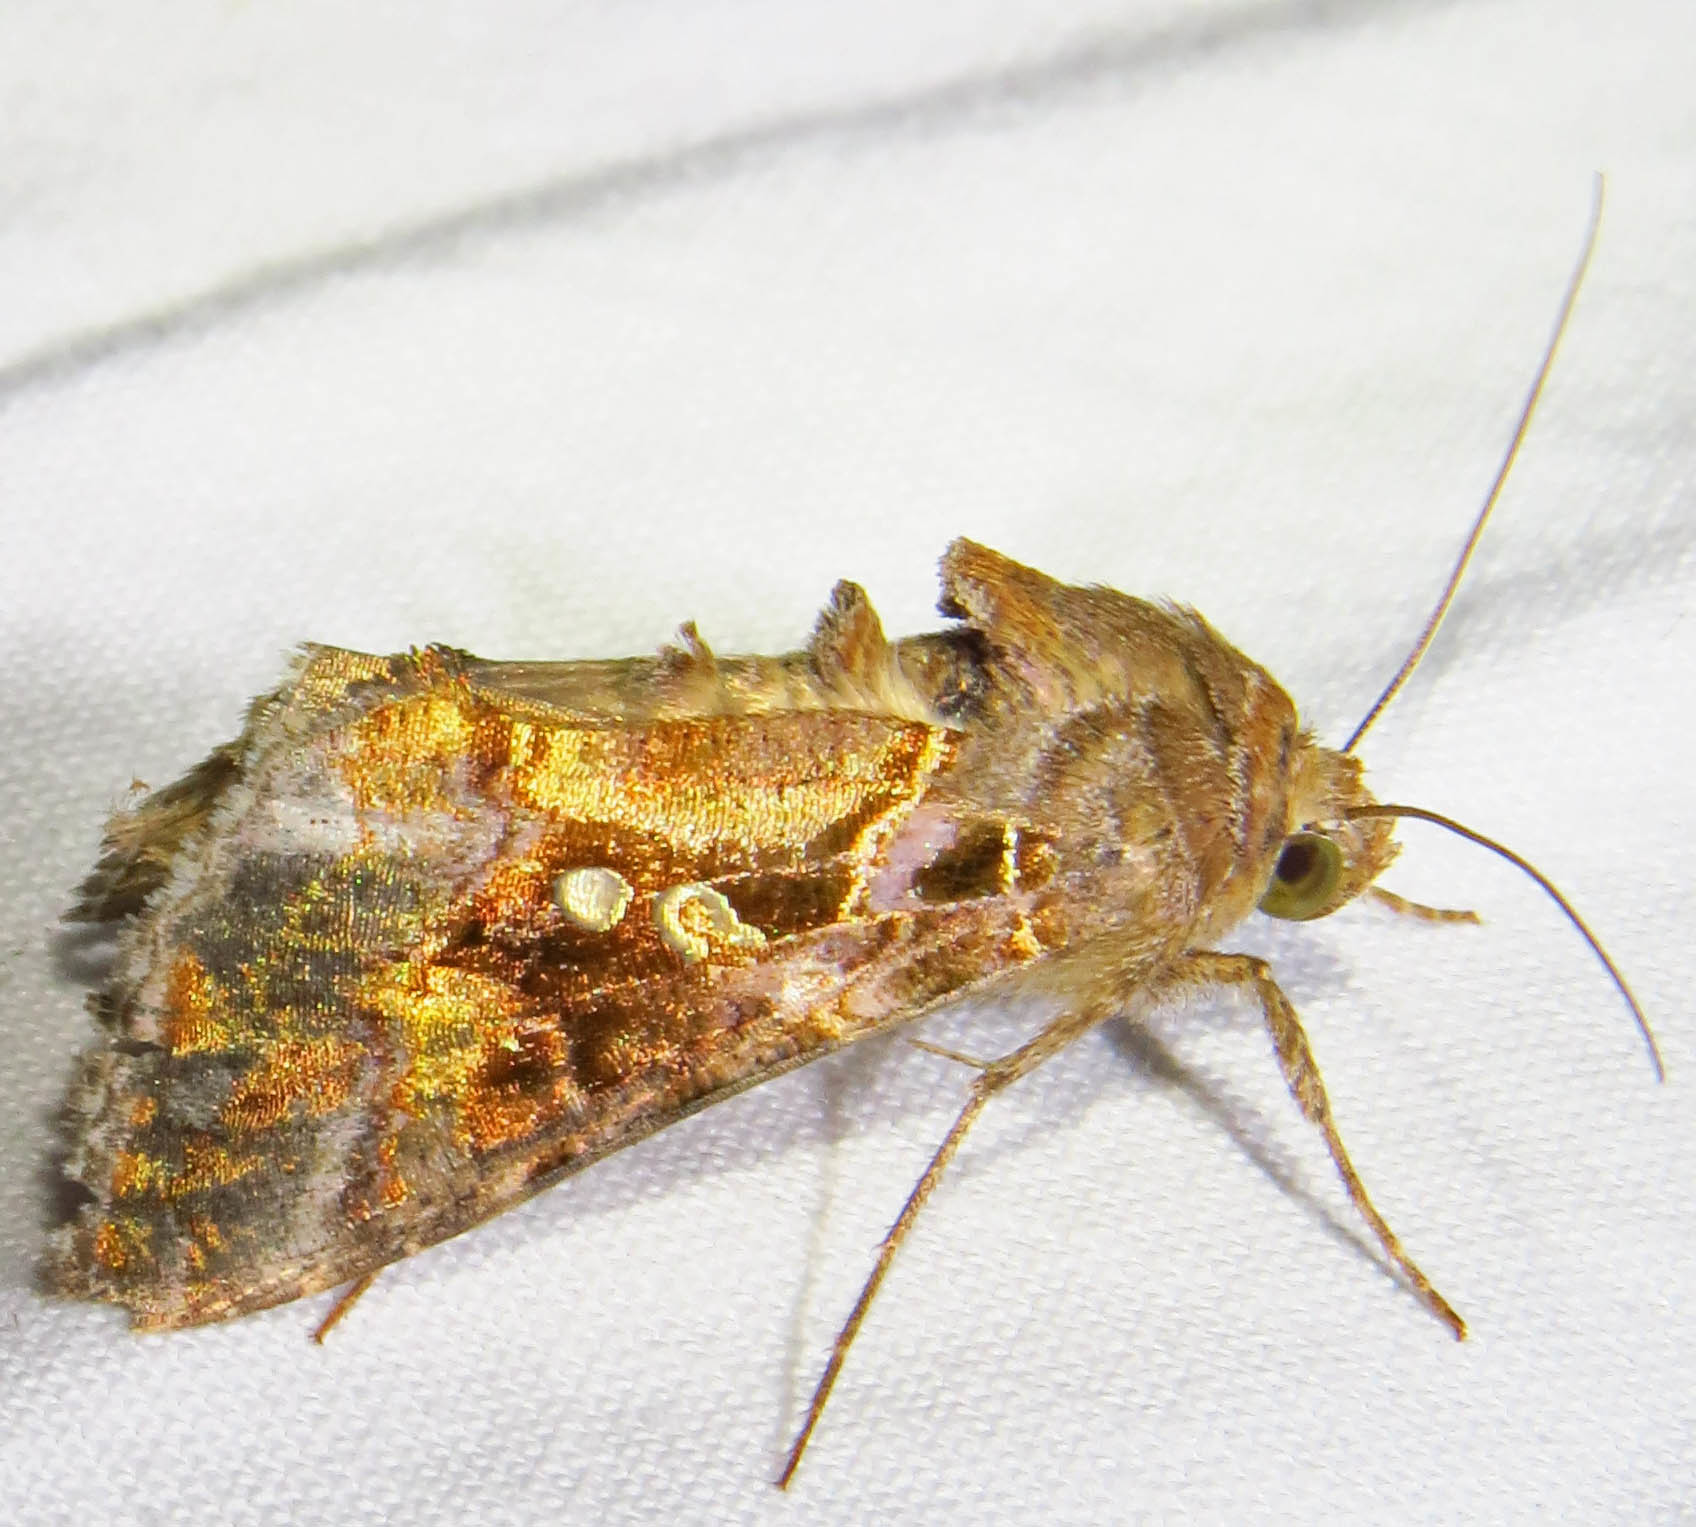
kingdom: Animalia
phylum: Arthropoda
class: Insecta
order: Lepidoptera
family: Noctuidae
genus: Chrysodeixis
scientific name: Chrysodeixis includens
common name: Cutworm moth
